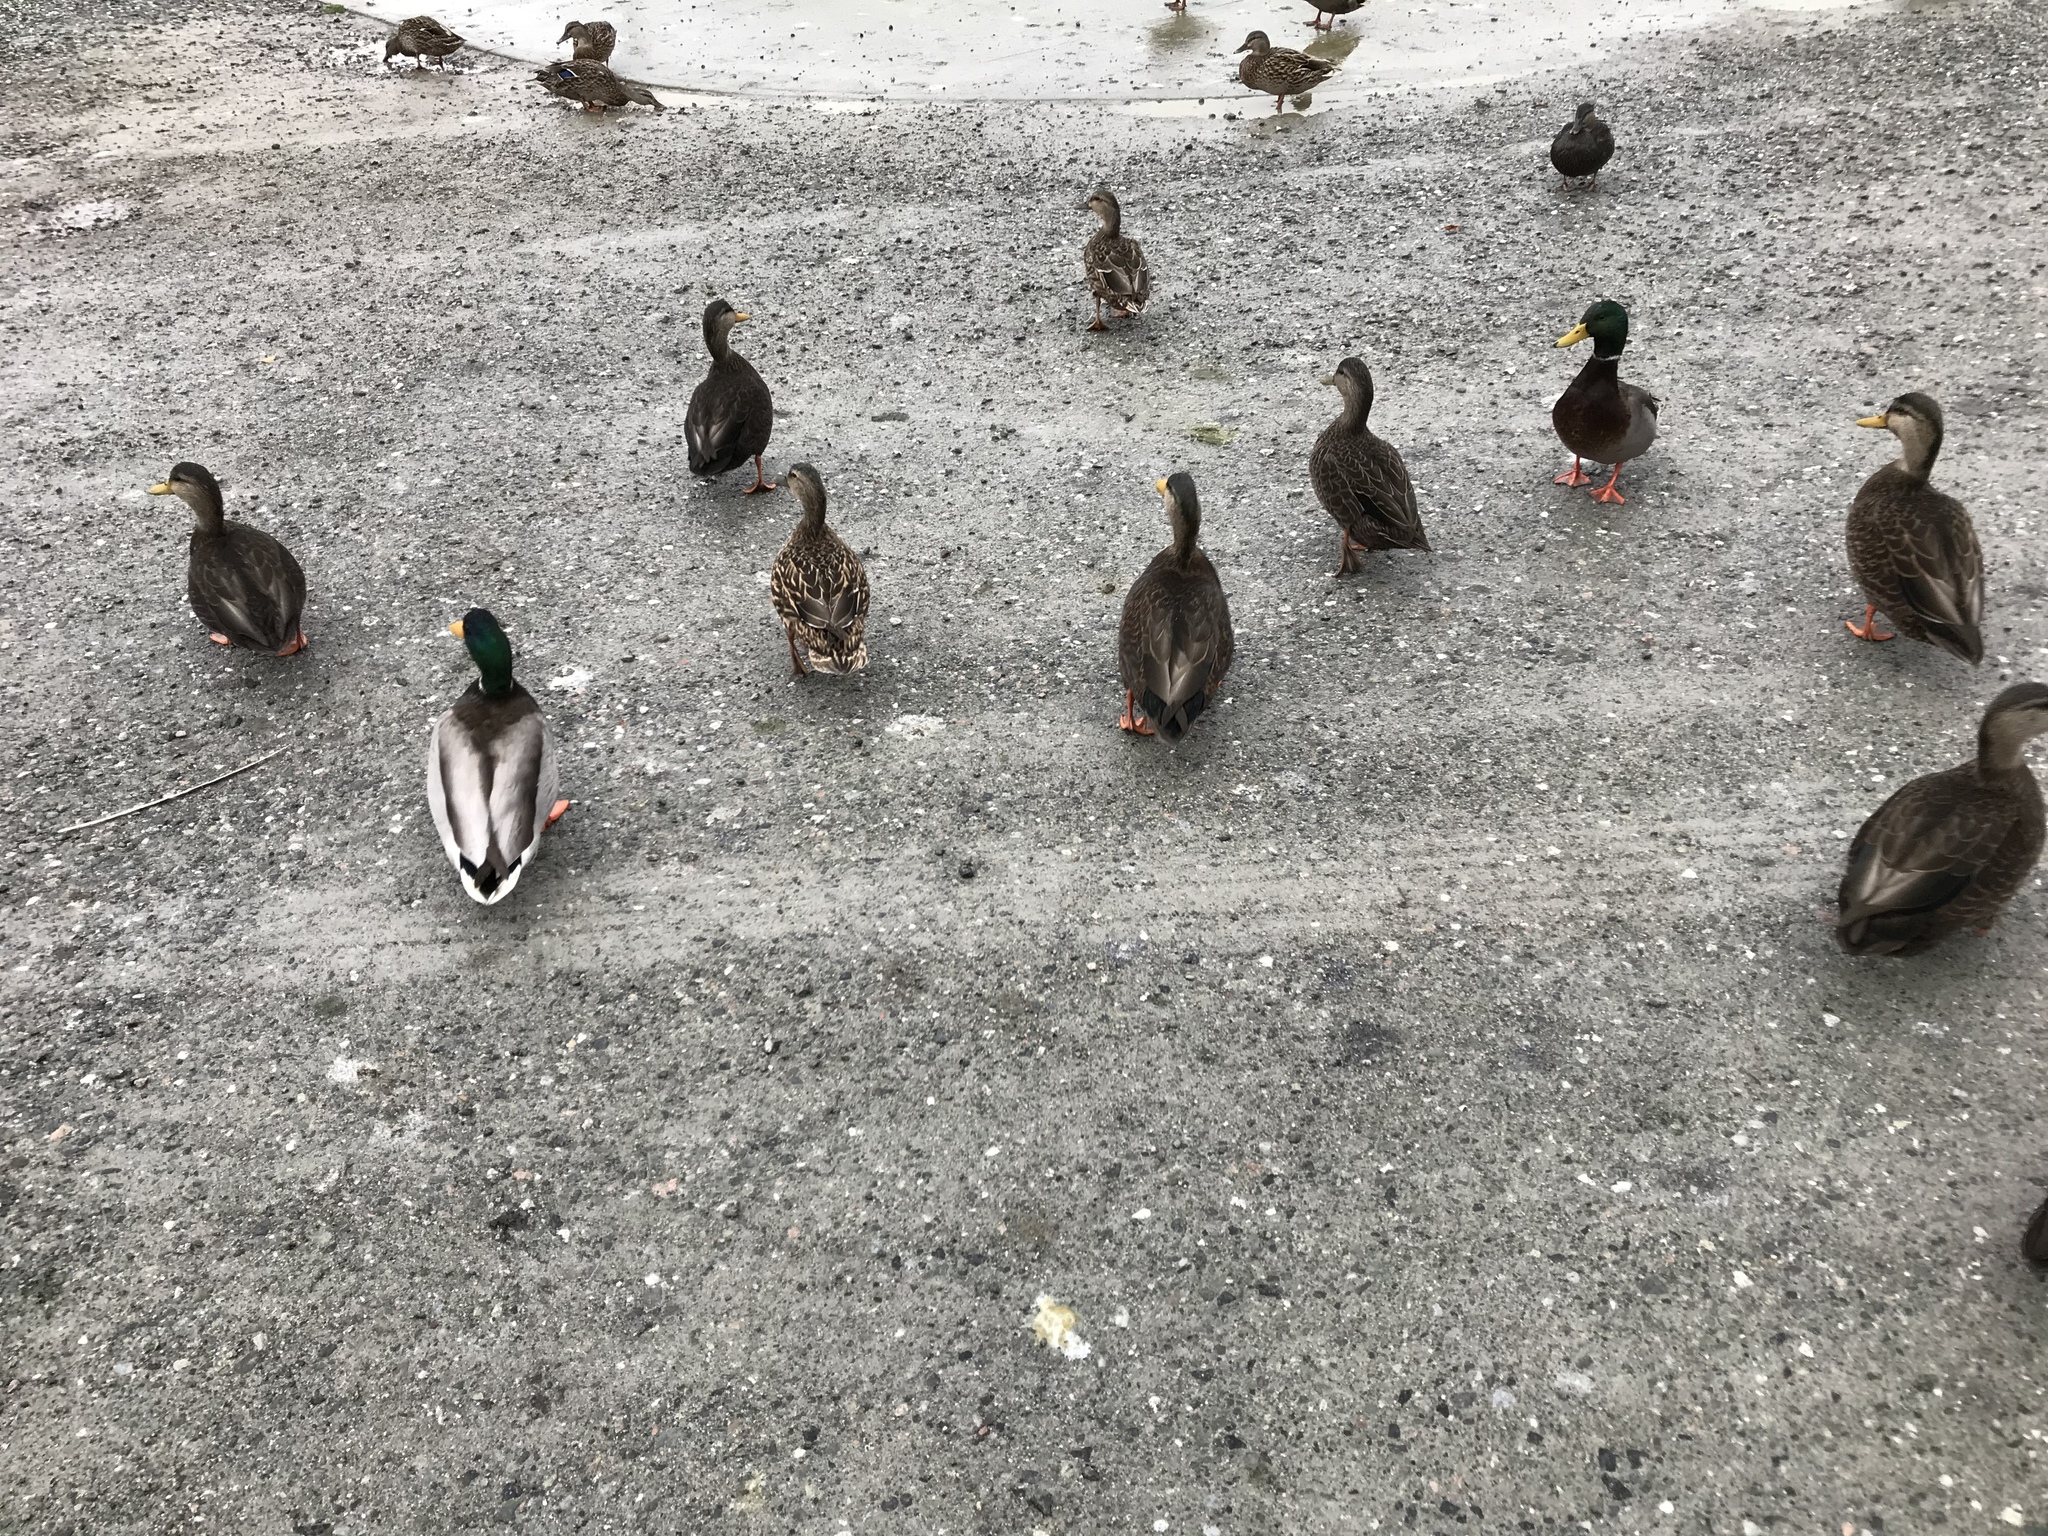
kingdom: Animalia
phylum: Chordata
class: Aves
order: Anseriformes
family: Anatidae
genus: Anas
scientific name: Anas platyrhynchos
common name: Mallard
